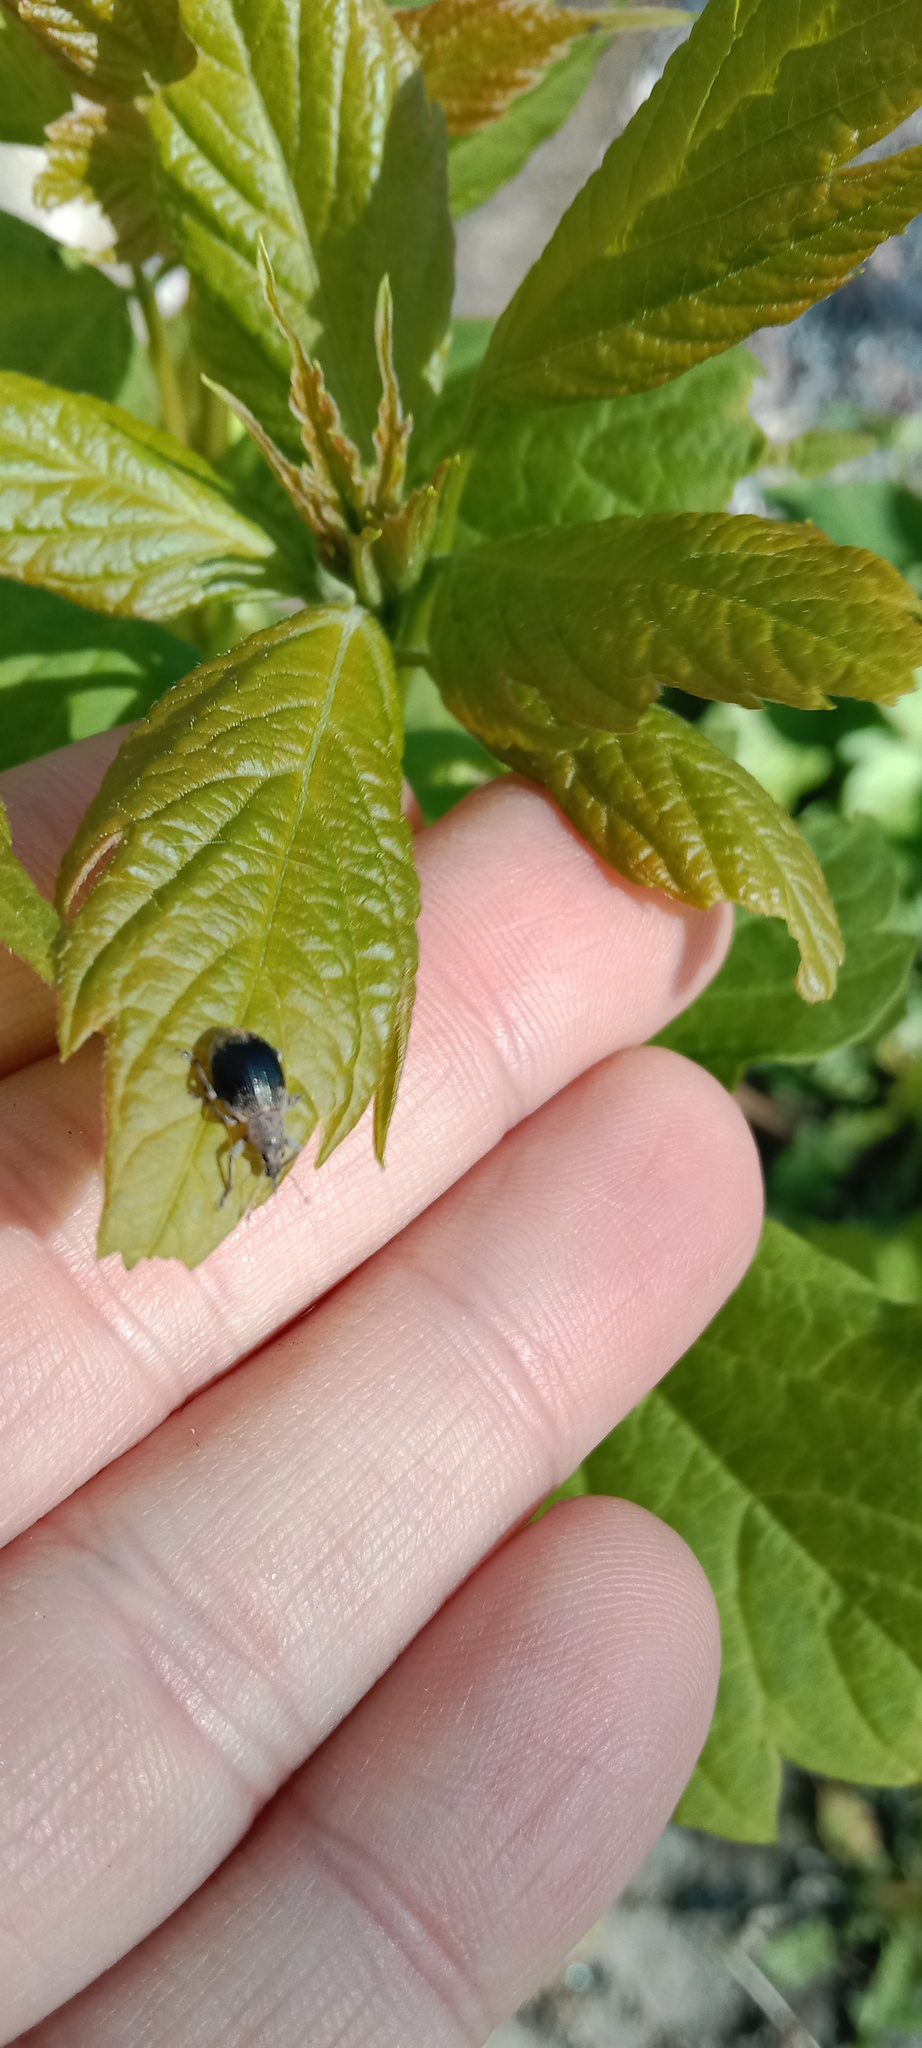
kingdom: Animalia
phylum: Arthropoda
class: Insecta
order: Coleoptera
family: Curculionidae
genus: Sciaphobus
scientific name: Sciaphobus squalidus
